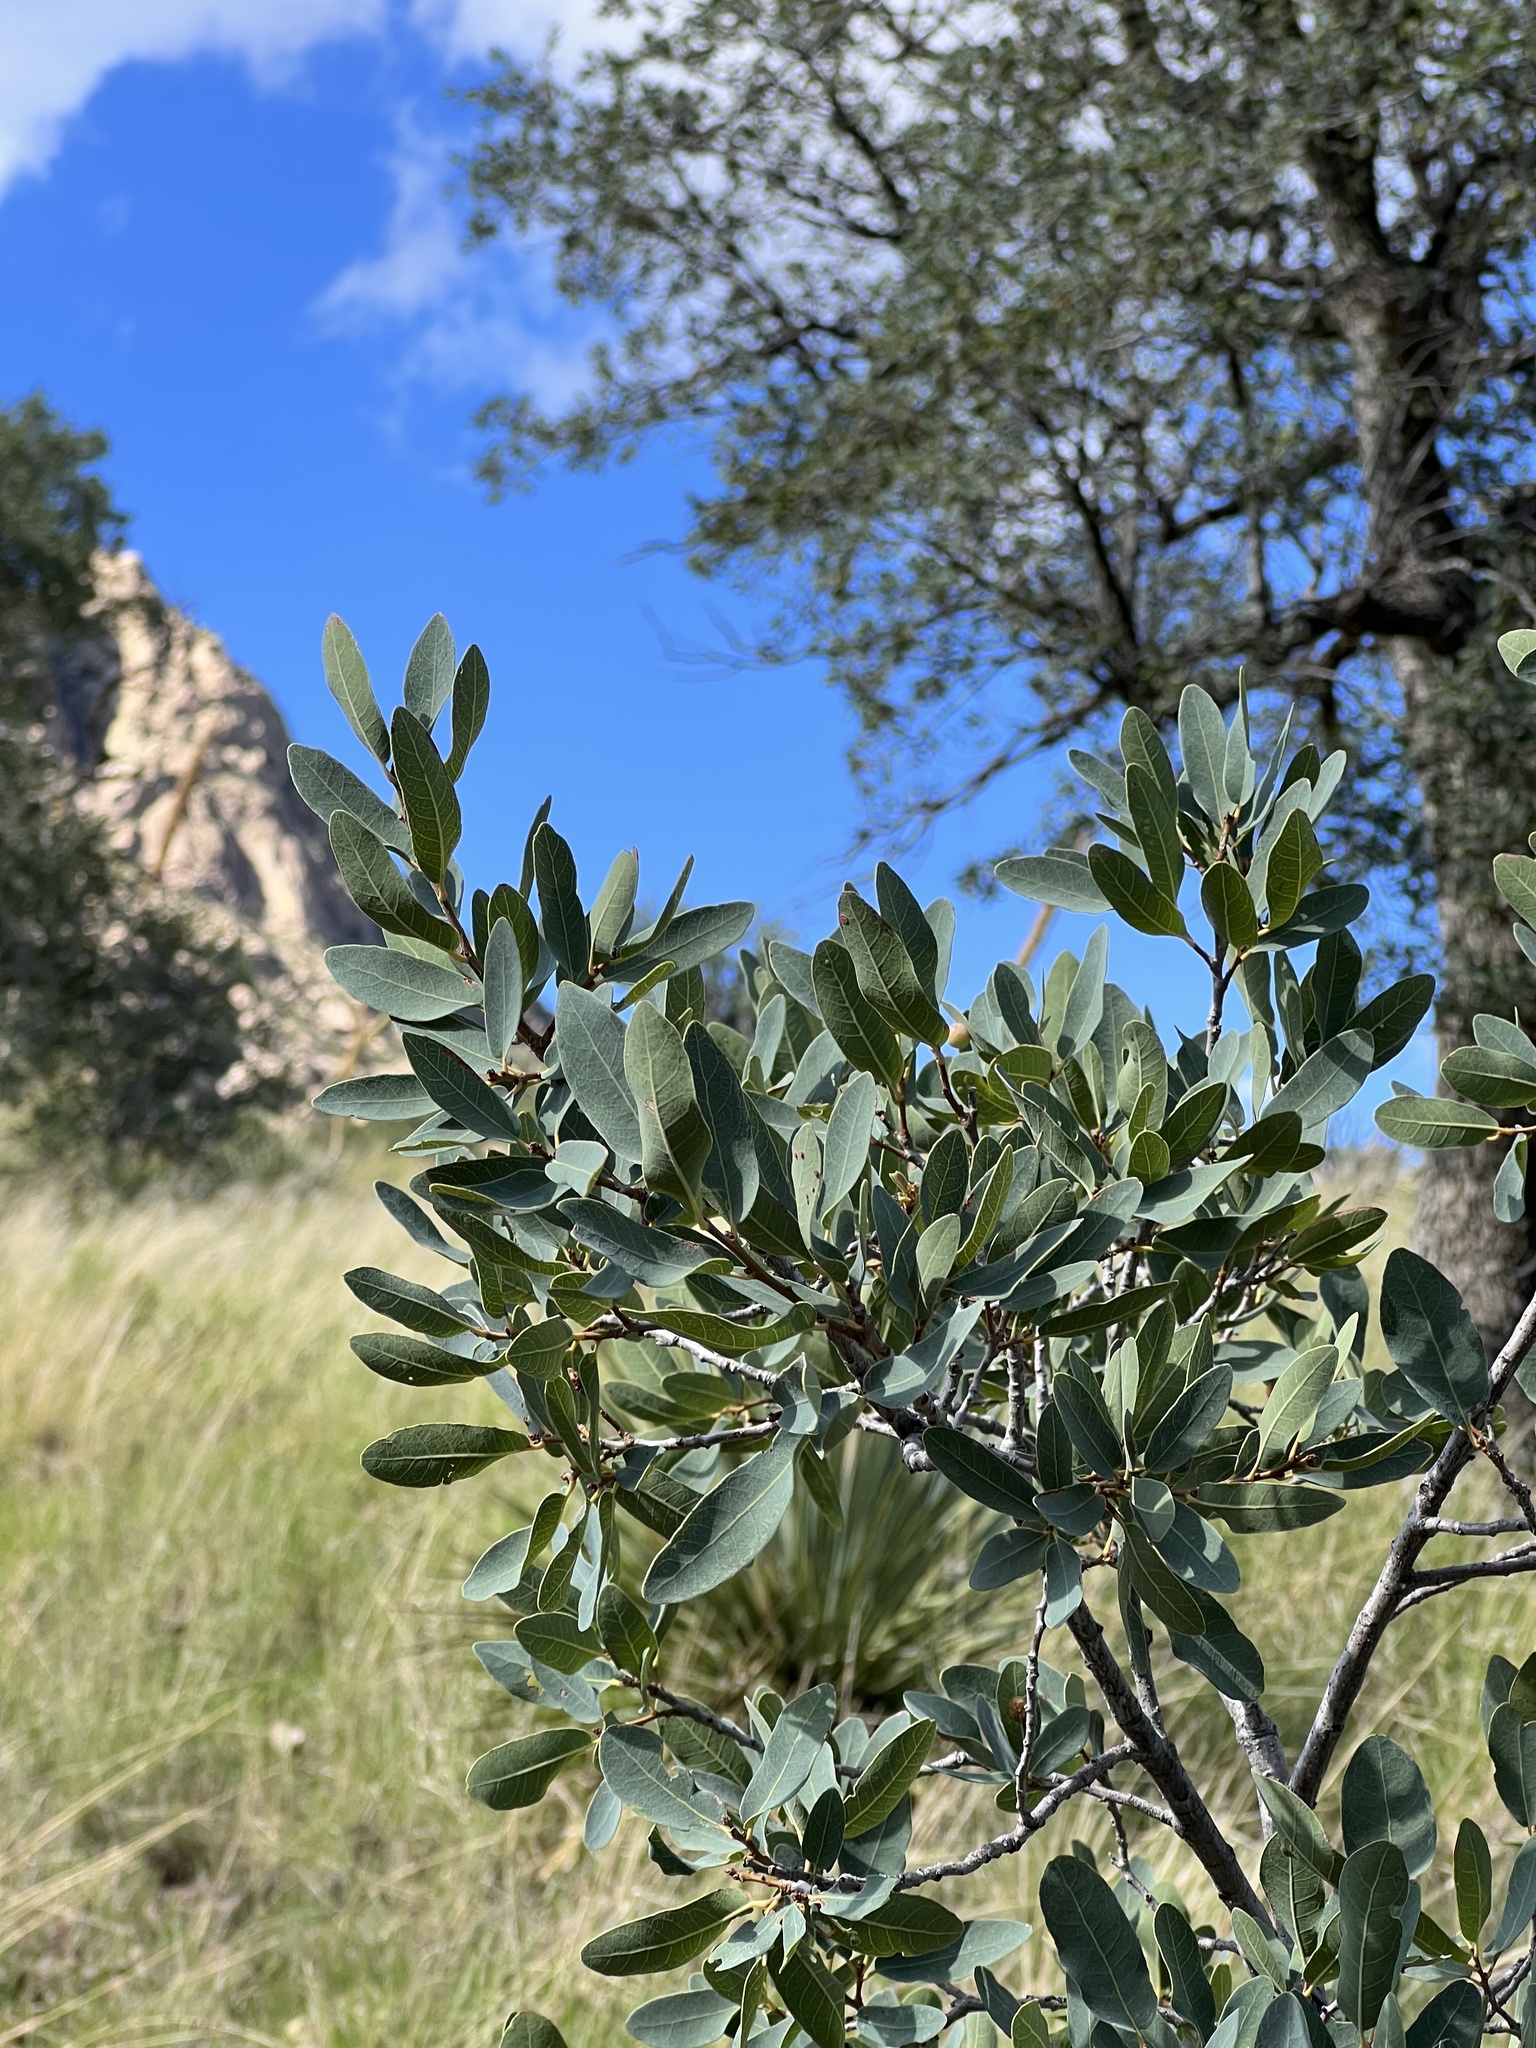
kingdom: Plantae
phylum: Tracheophyta
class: Magnoliopsida
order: Fagales
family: Fagaceae
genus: Quercus
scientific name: Quercus oblongifolia
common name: Mexican blue oak
